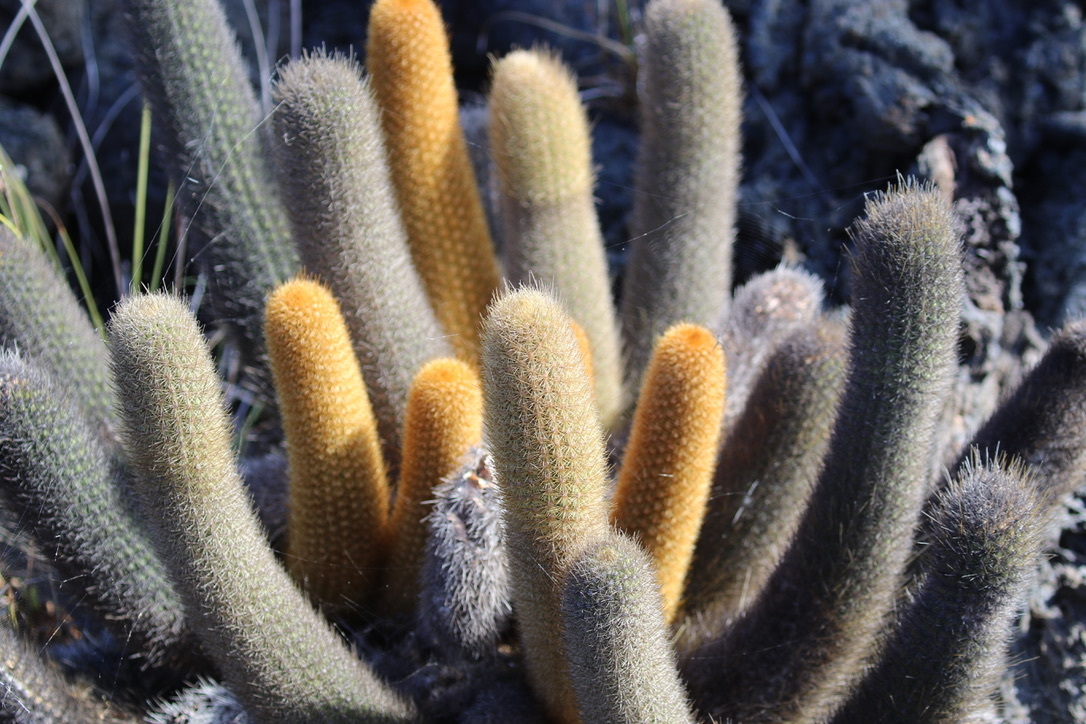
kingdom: Plantae
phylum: Tracheophyta
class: Magnoliopsida
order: Caryophyllales
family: Cactaceae
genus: Brachycereus
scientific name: Brachycereus nesioticus
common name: Lava cactus
